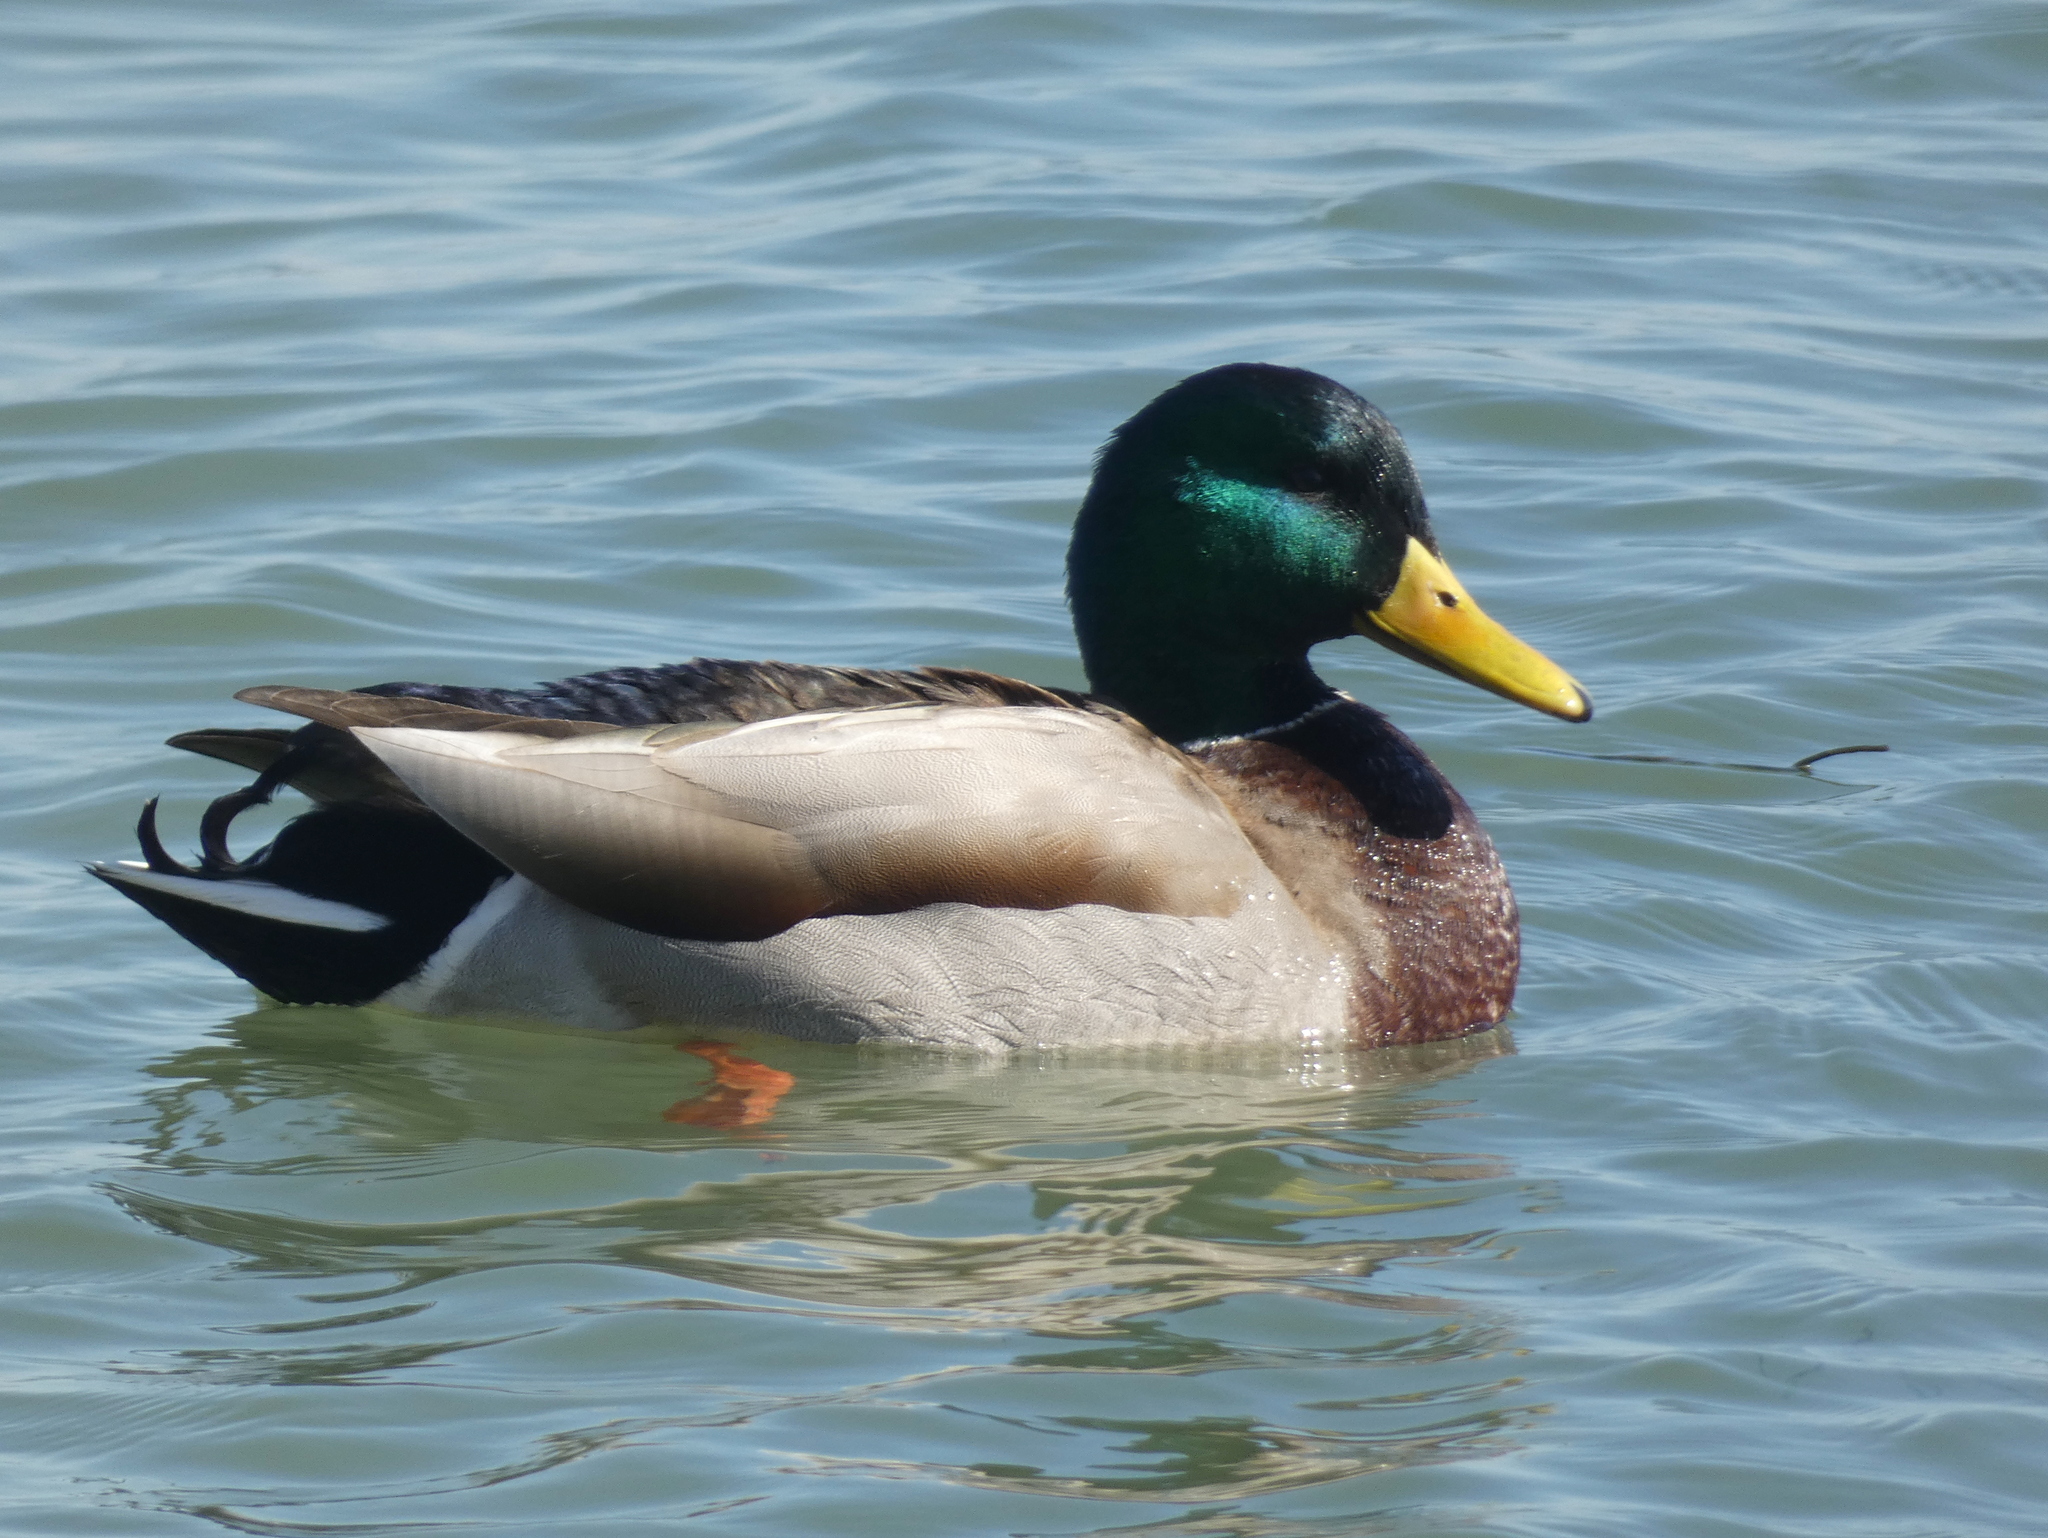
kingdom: Animalia
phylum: Chordata
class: Aves
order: Anseriformes
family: Anatidae
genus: Anas
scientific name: Anas platyrhynchos
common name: Mallard
